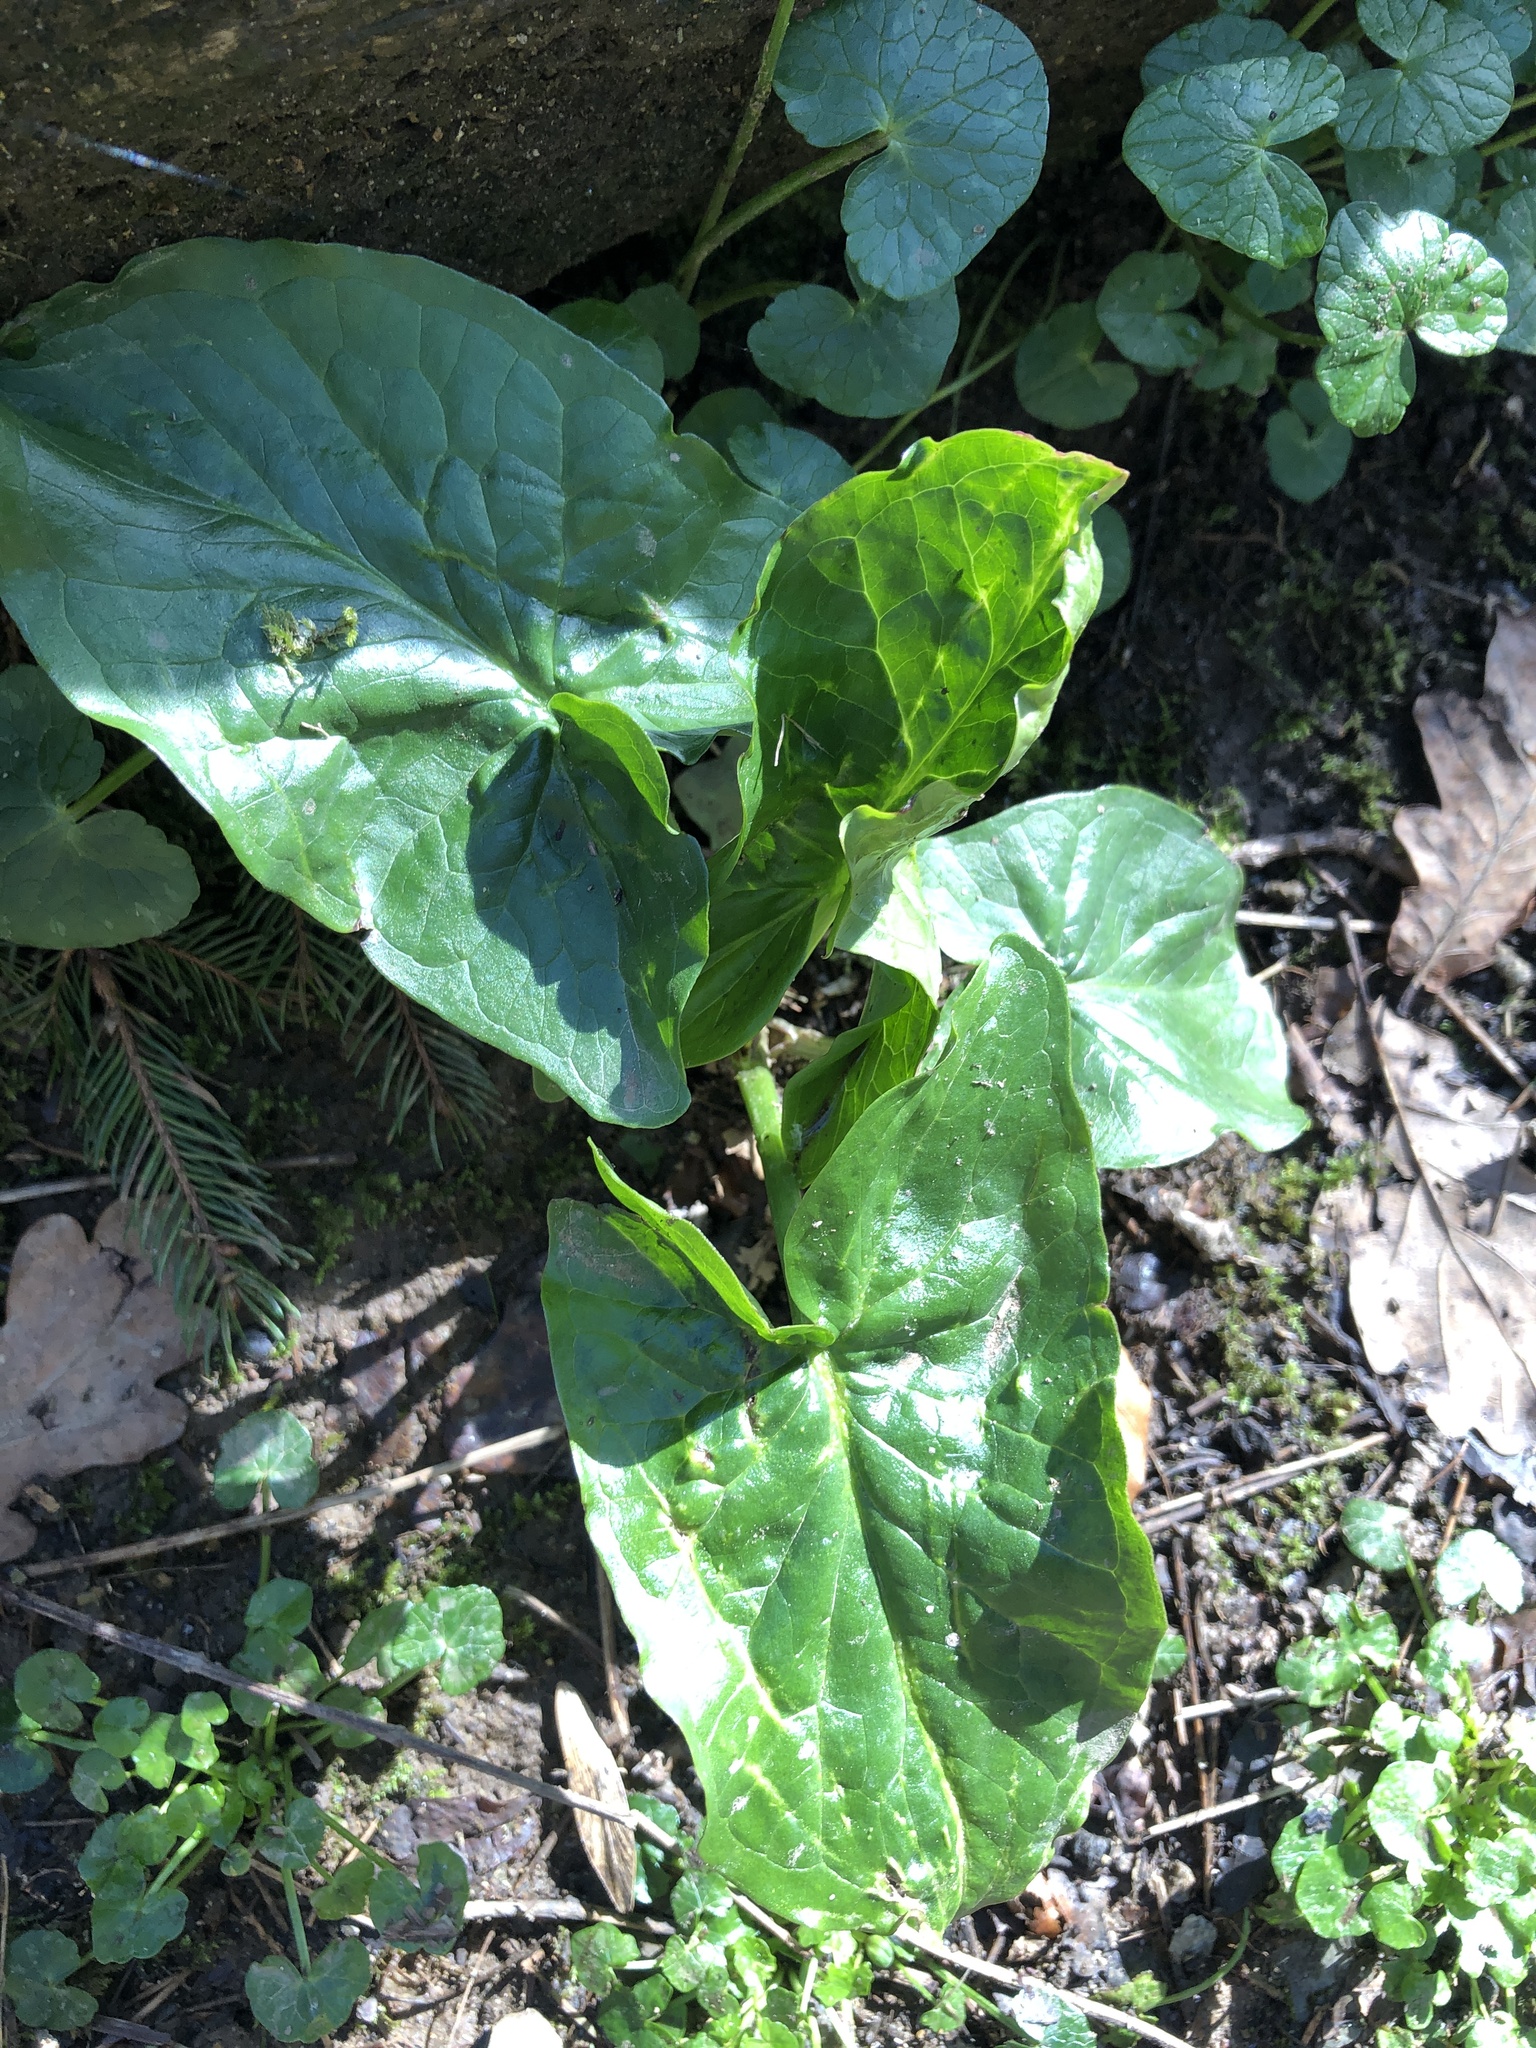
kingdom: Plantae
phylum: Tracheophyta
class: Liliopsida
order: Alismatales
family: Araceae
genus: Arum
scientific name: Arum maculatum
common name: Lords-and-ladies
